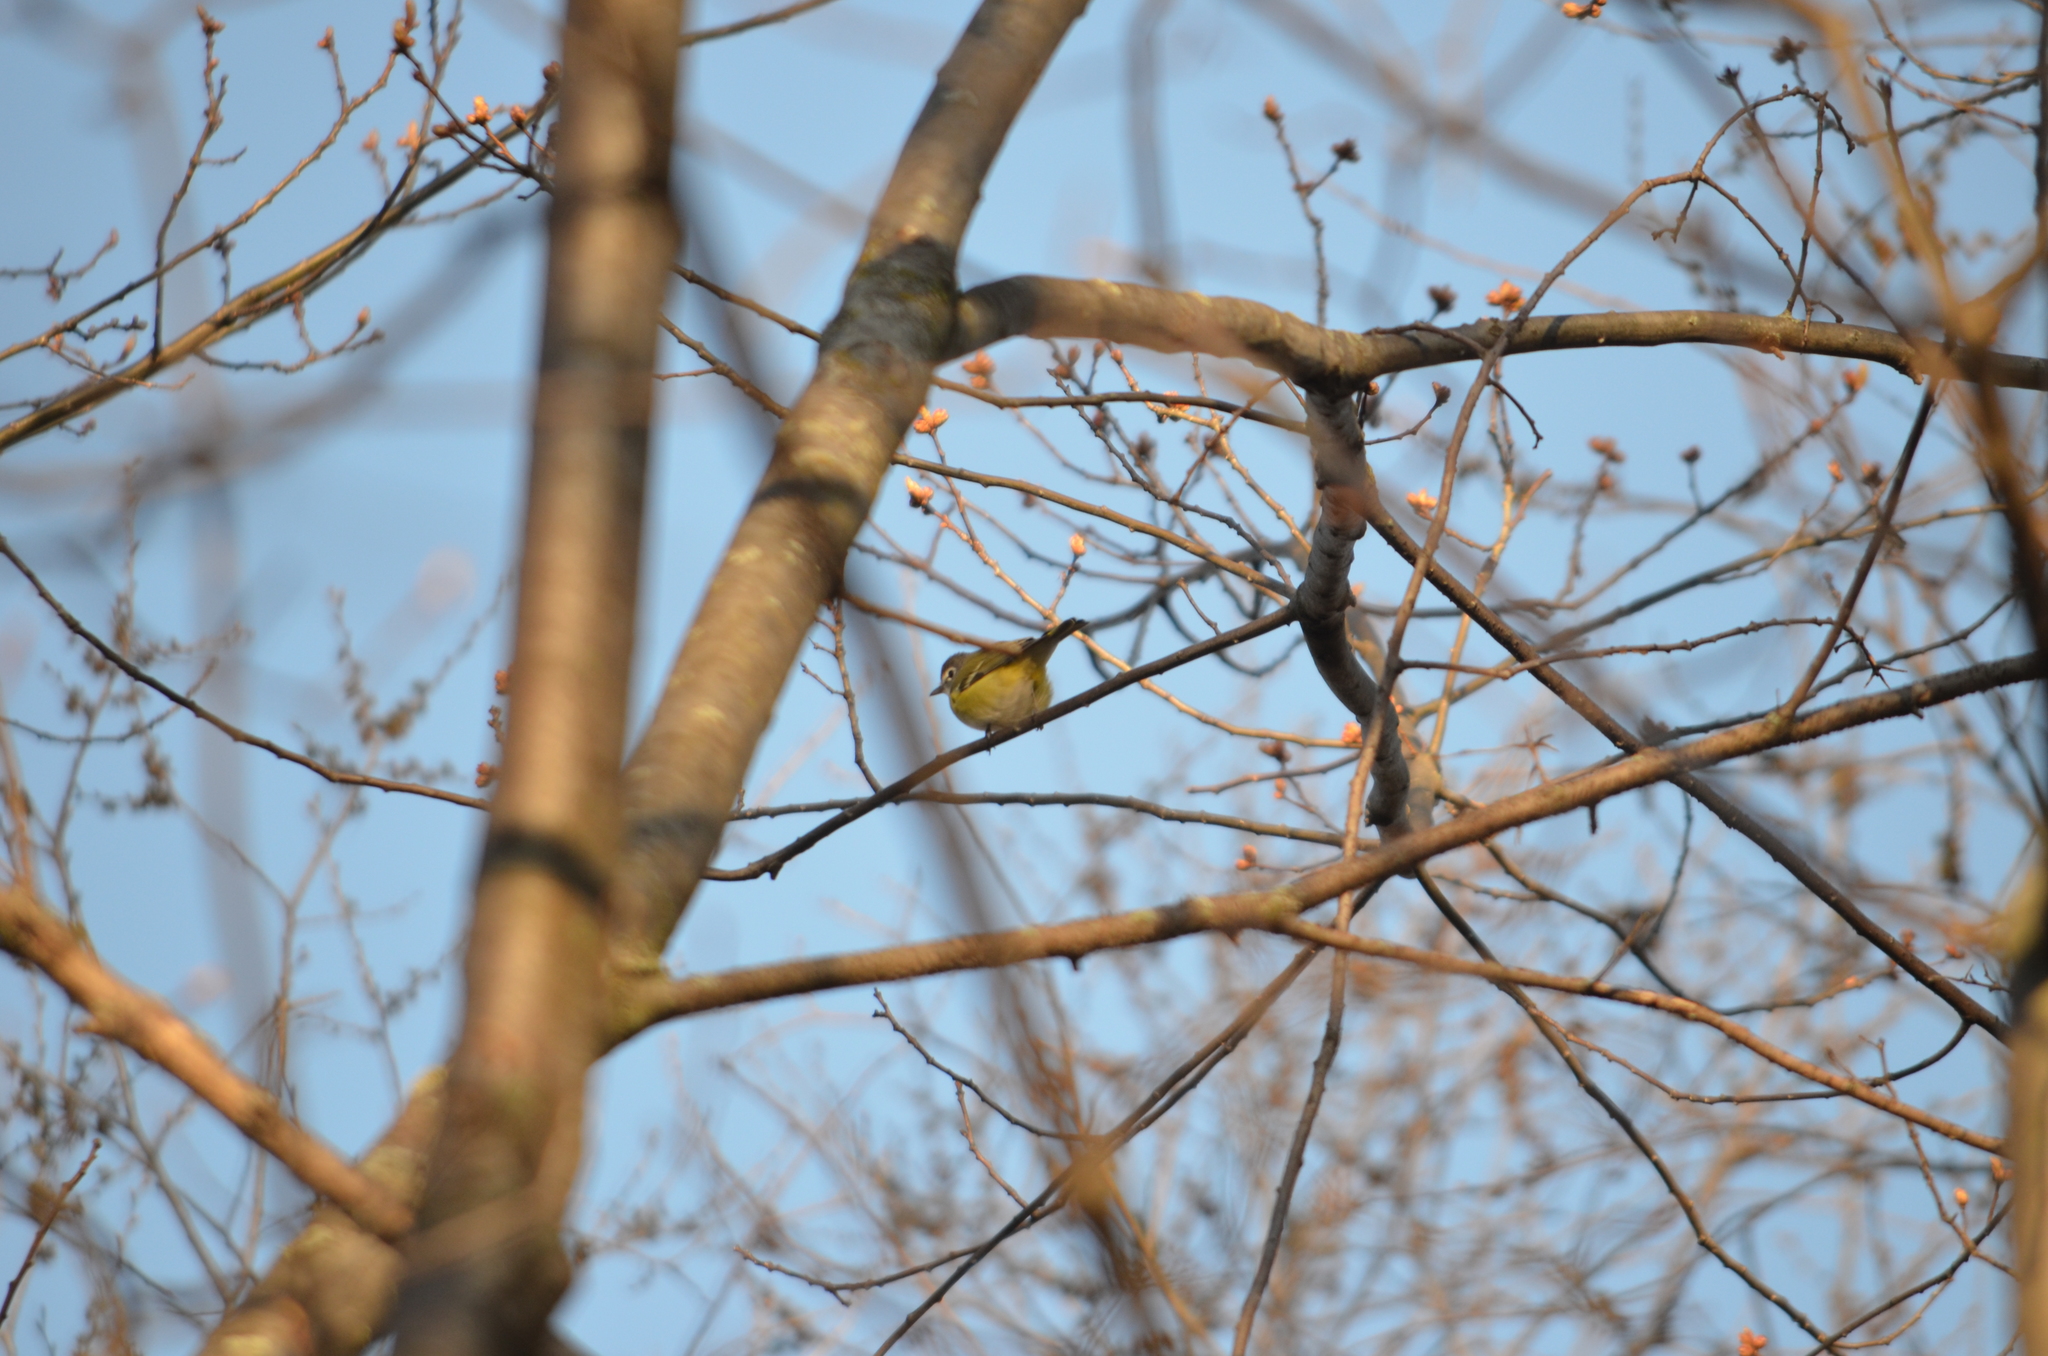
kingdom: Animalia
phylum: Chordata
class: Aves
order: Passeriformes
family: Vireonidae
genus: Vireo
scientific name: Vireo solitarius
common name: Blue-headed vireo
